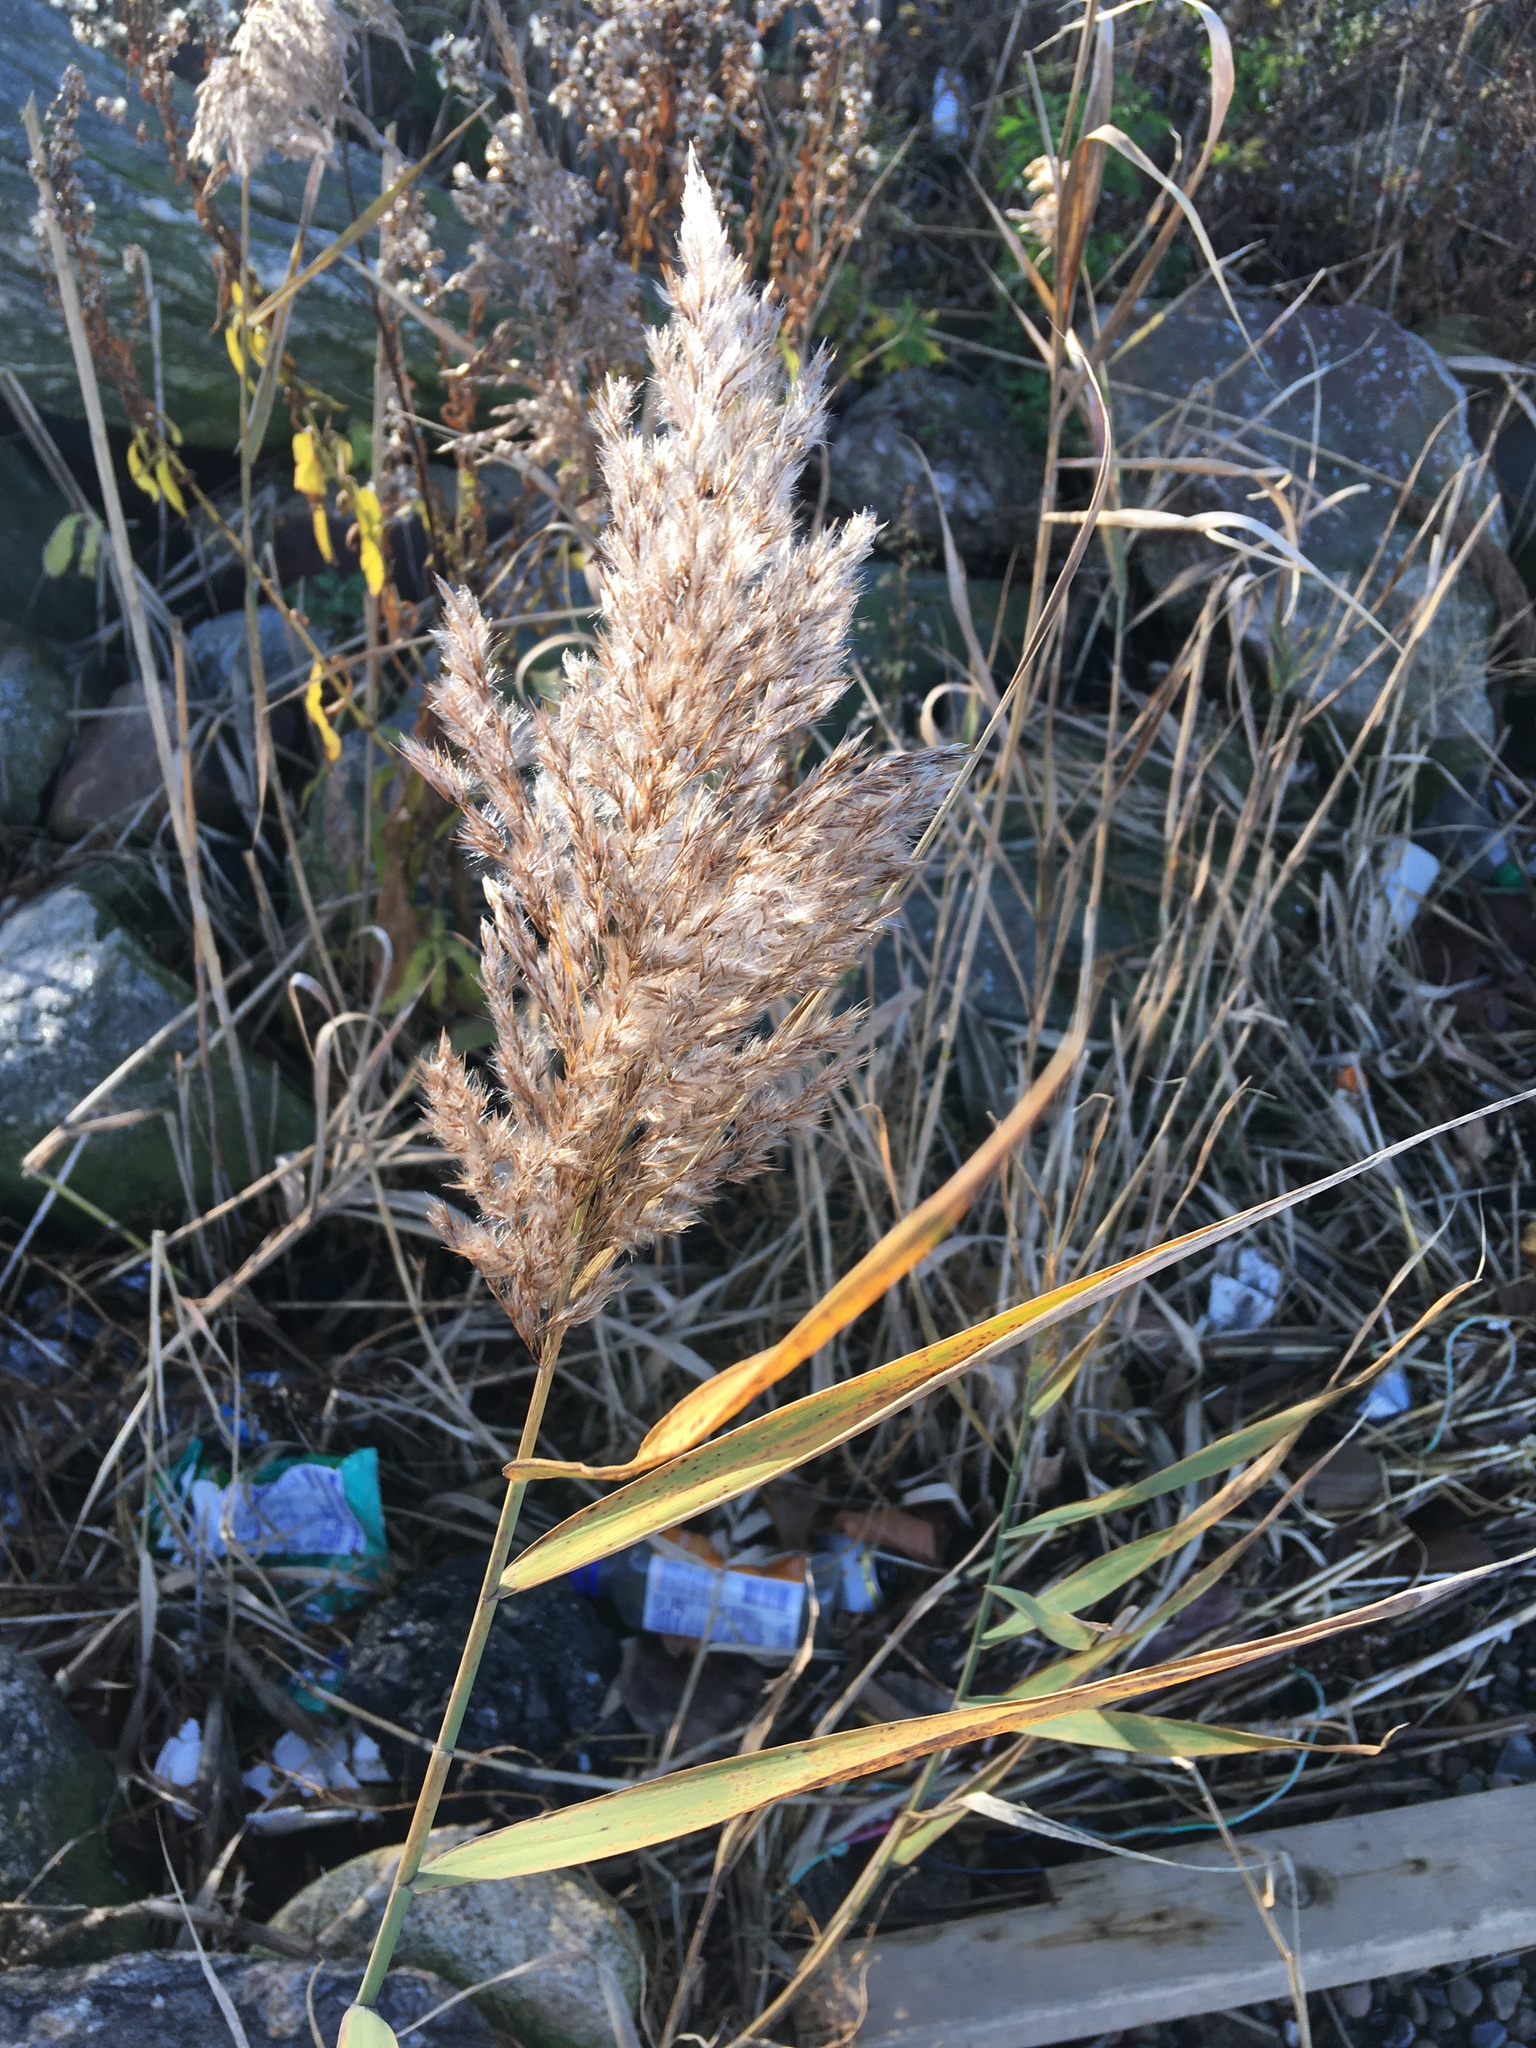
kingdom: Plantae
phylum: Tracheophyta
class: Liliopsida
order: Poales
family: Poaceae
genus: Phragmites
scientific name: Phragmites australis
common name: Common reed
